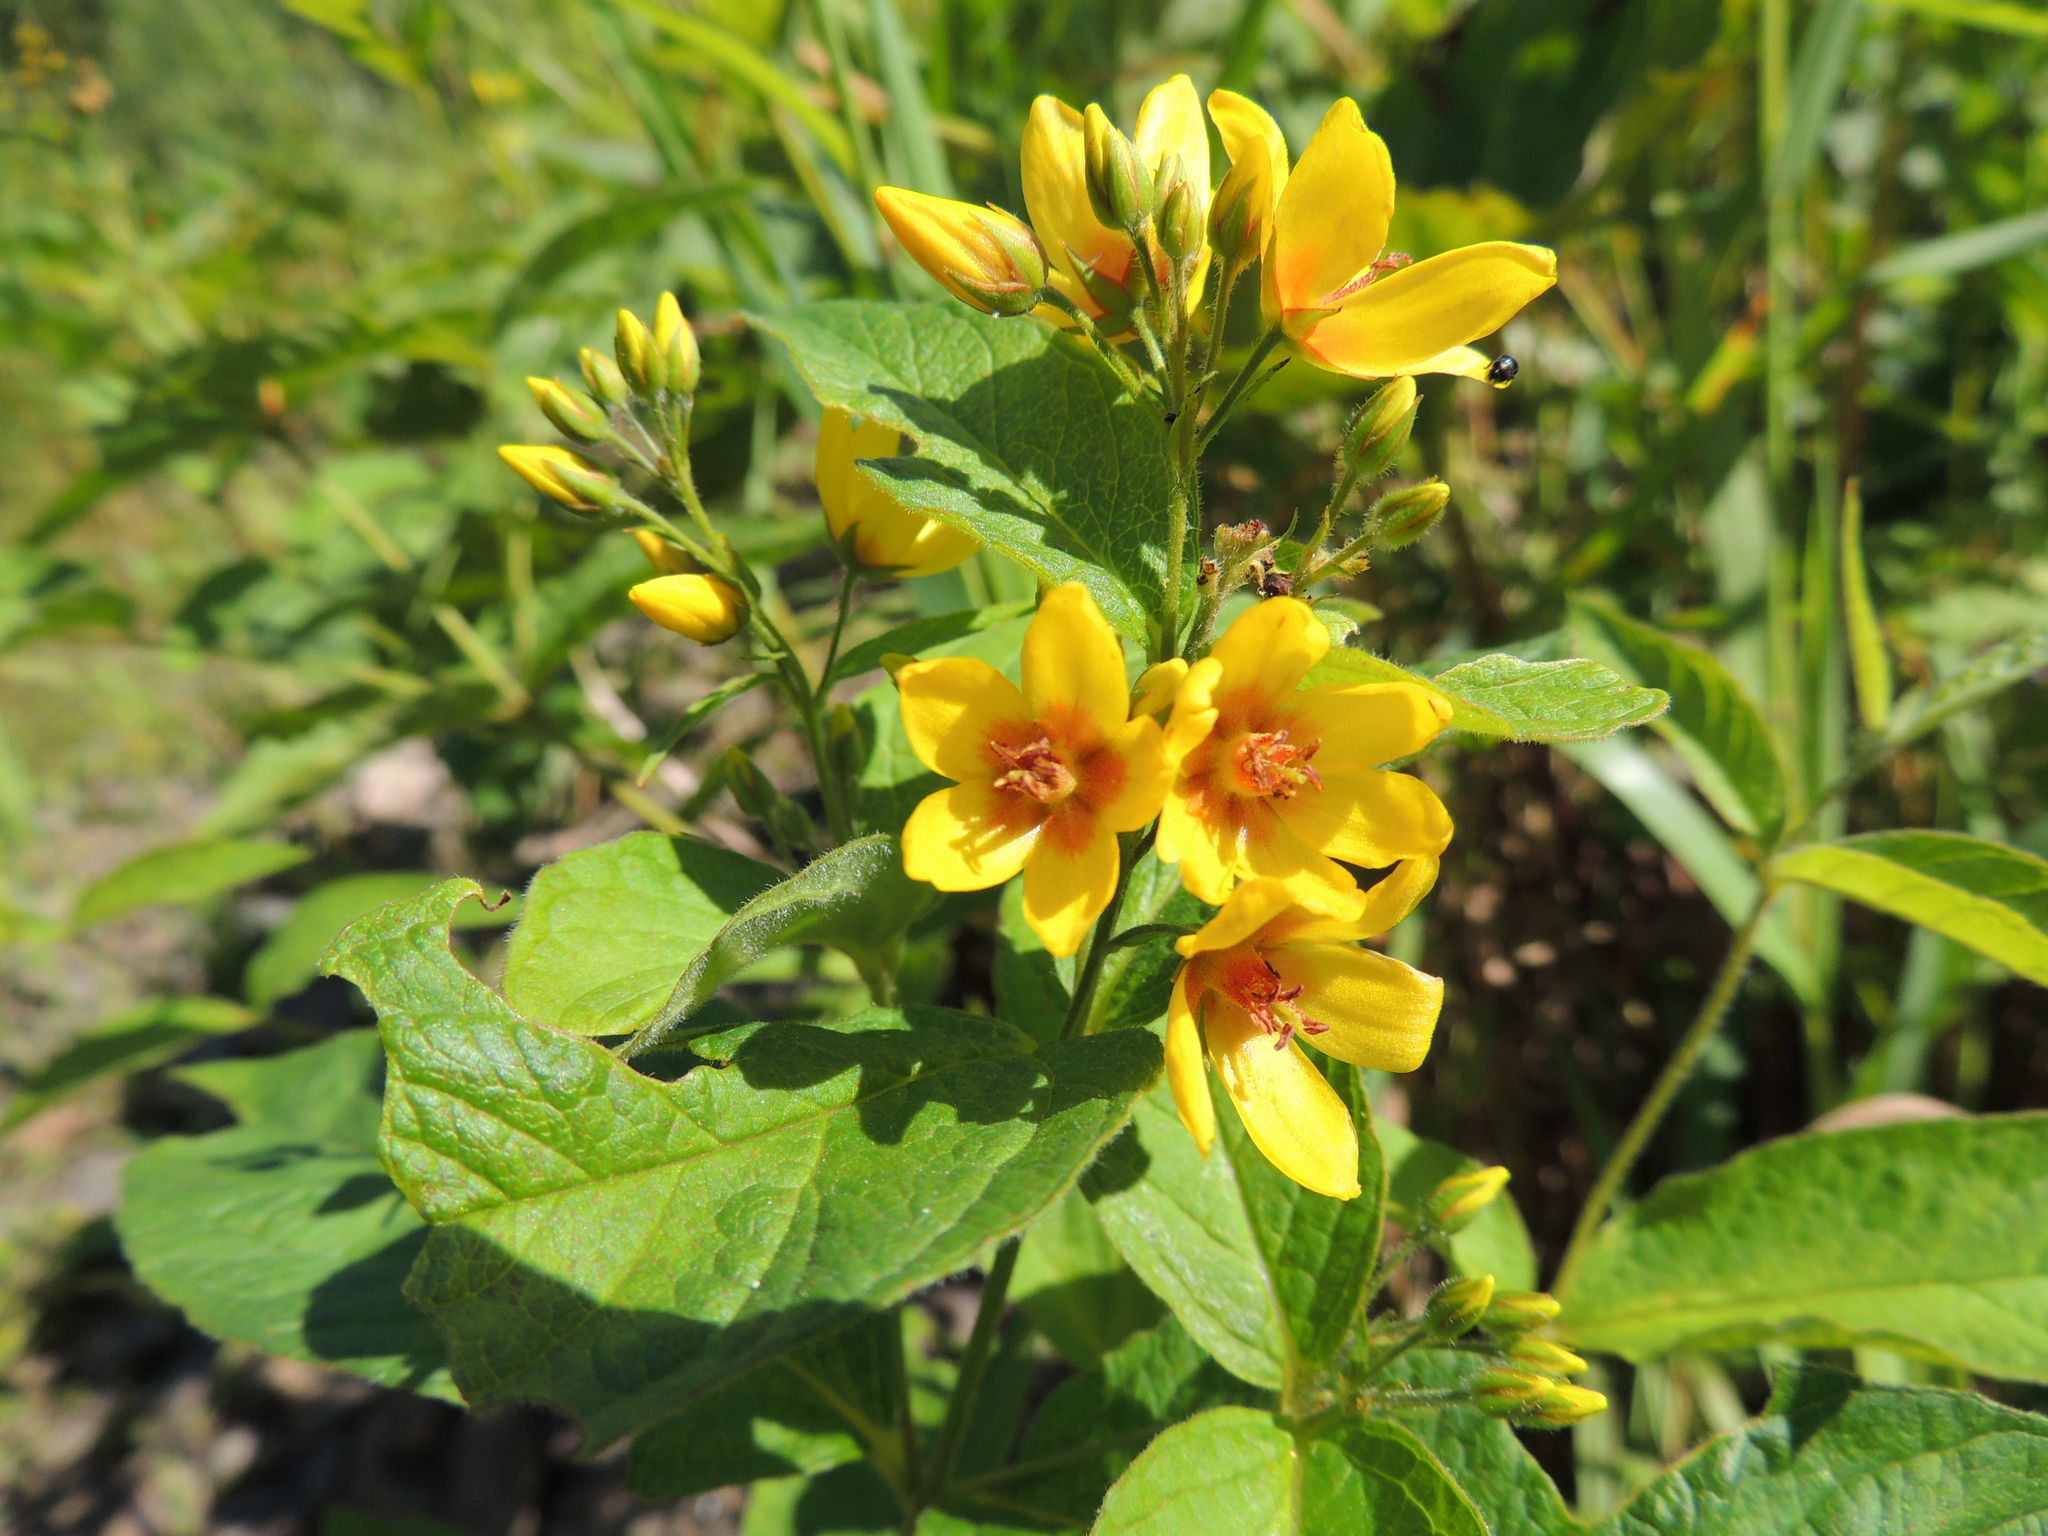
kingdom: Plantae
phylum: Tracheophyta
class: Magnoliopsida
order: Ericales
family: Primulaceae
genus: Lysimachia
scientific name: Lysimachia vulgaris
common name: Yellow loosestrife
